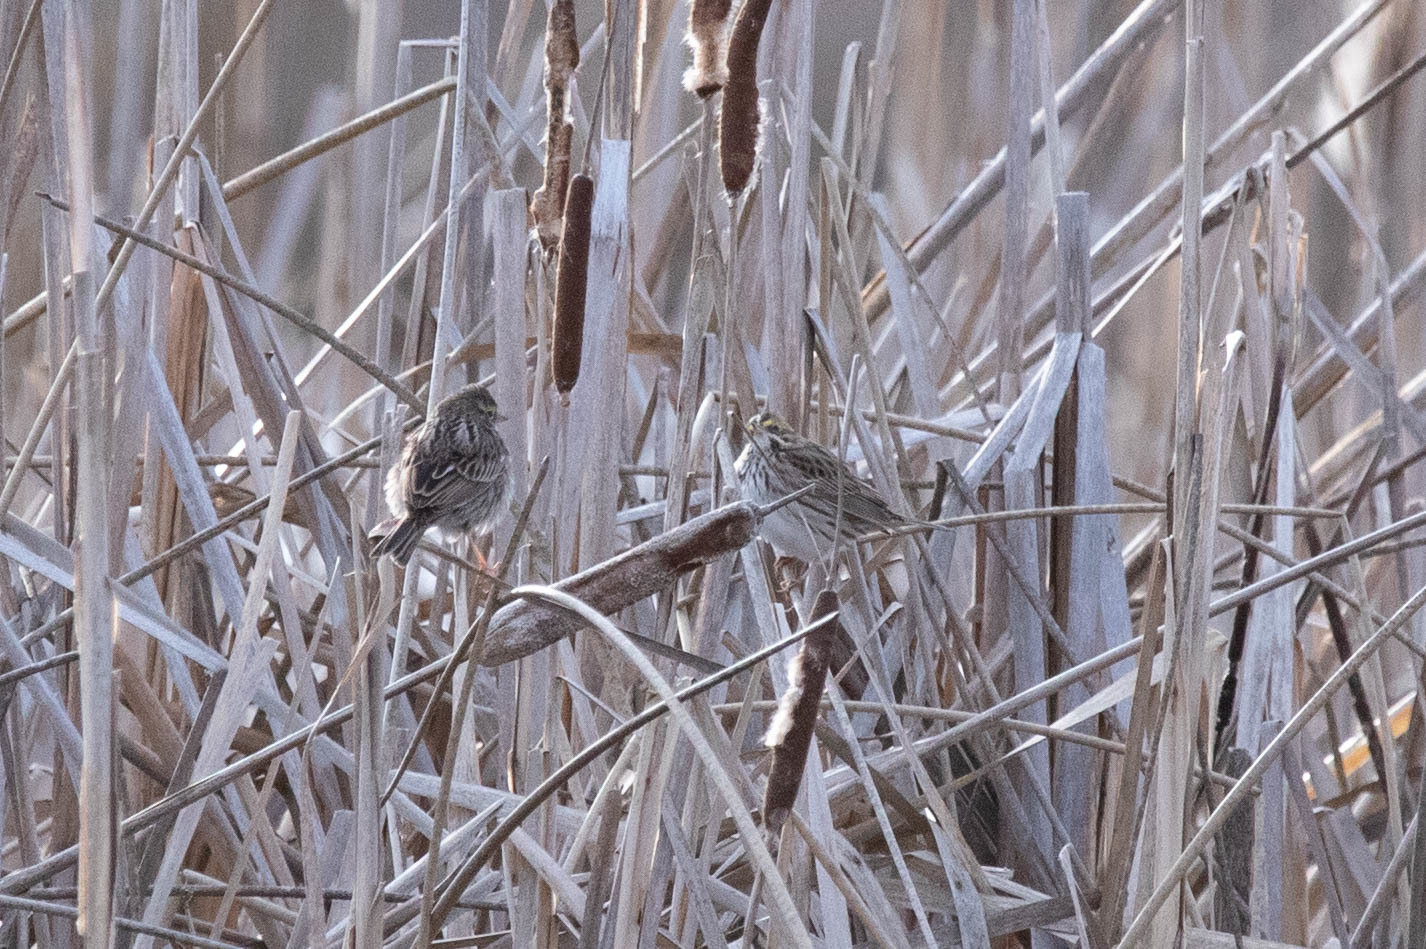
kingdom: Animalia
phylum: Chordata
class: Aves
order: Passeriformes
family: Passerellidae
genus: Passerculus
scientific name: Passerculus sandwichensis
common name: Savannah sparrow
